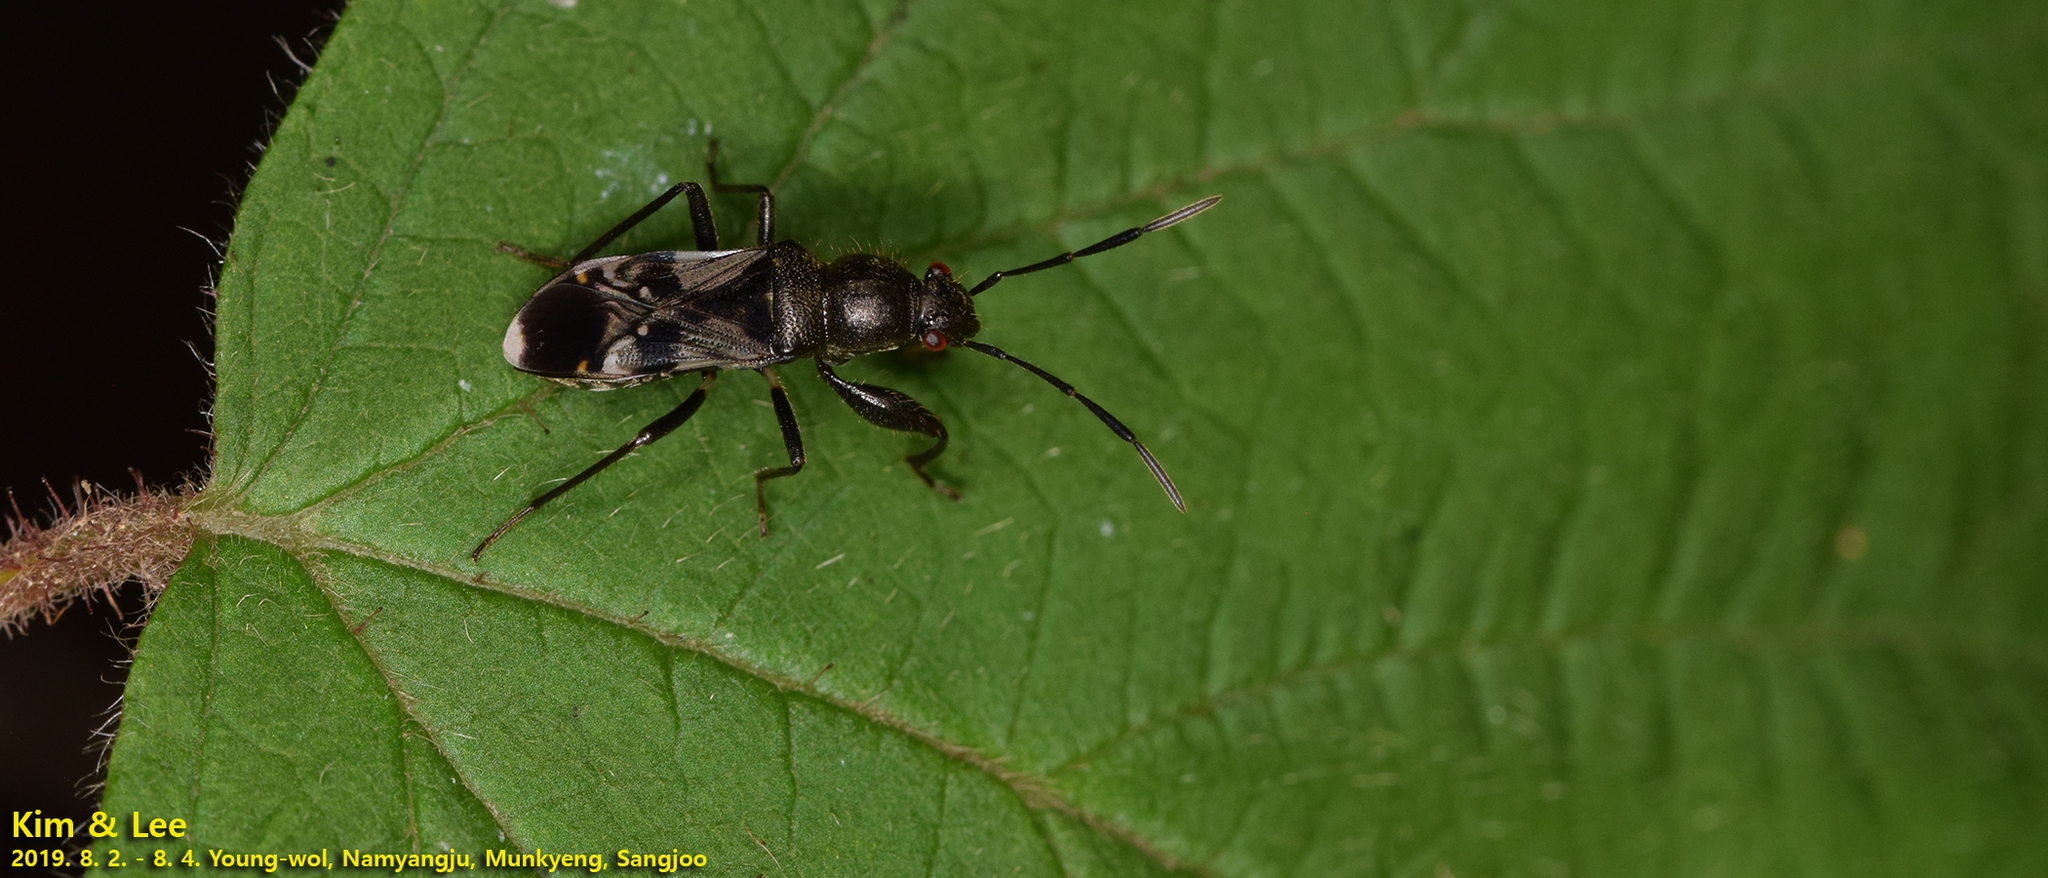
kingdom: Animalia
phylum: Arthropoda
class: Insecta
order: Hemiptera
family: Rhyparochromidae
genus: Scudderocoris
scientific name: Scudderocoris albomarginatus
